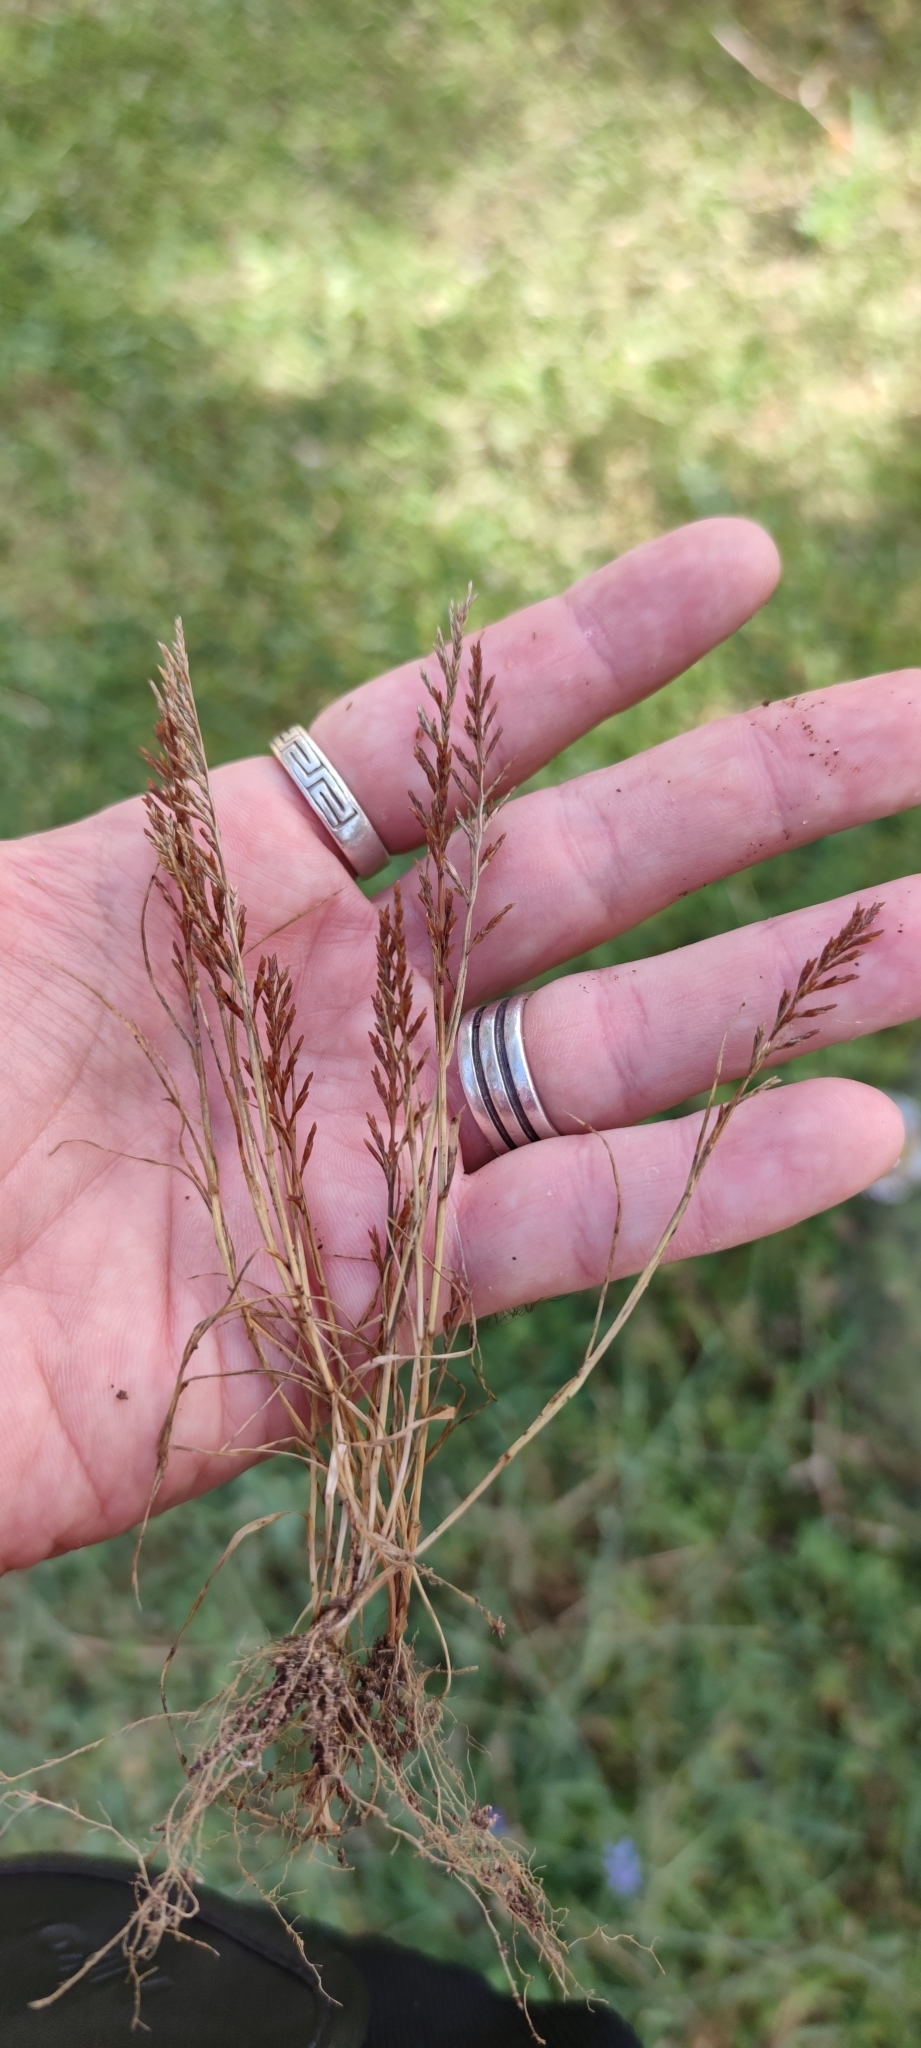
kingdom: Plantae
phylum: Tracheophyta
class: Liliopsida
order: Poales
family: Poaceae
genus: Catapodium
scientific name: Catapodium rigidum
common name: Fern-grass
